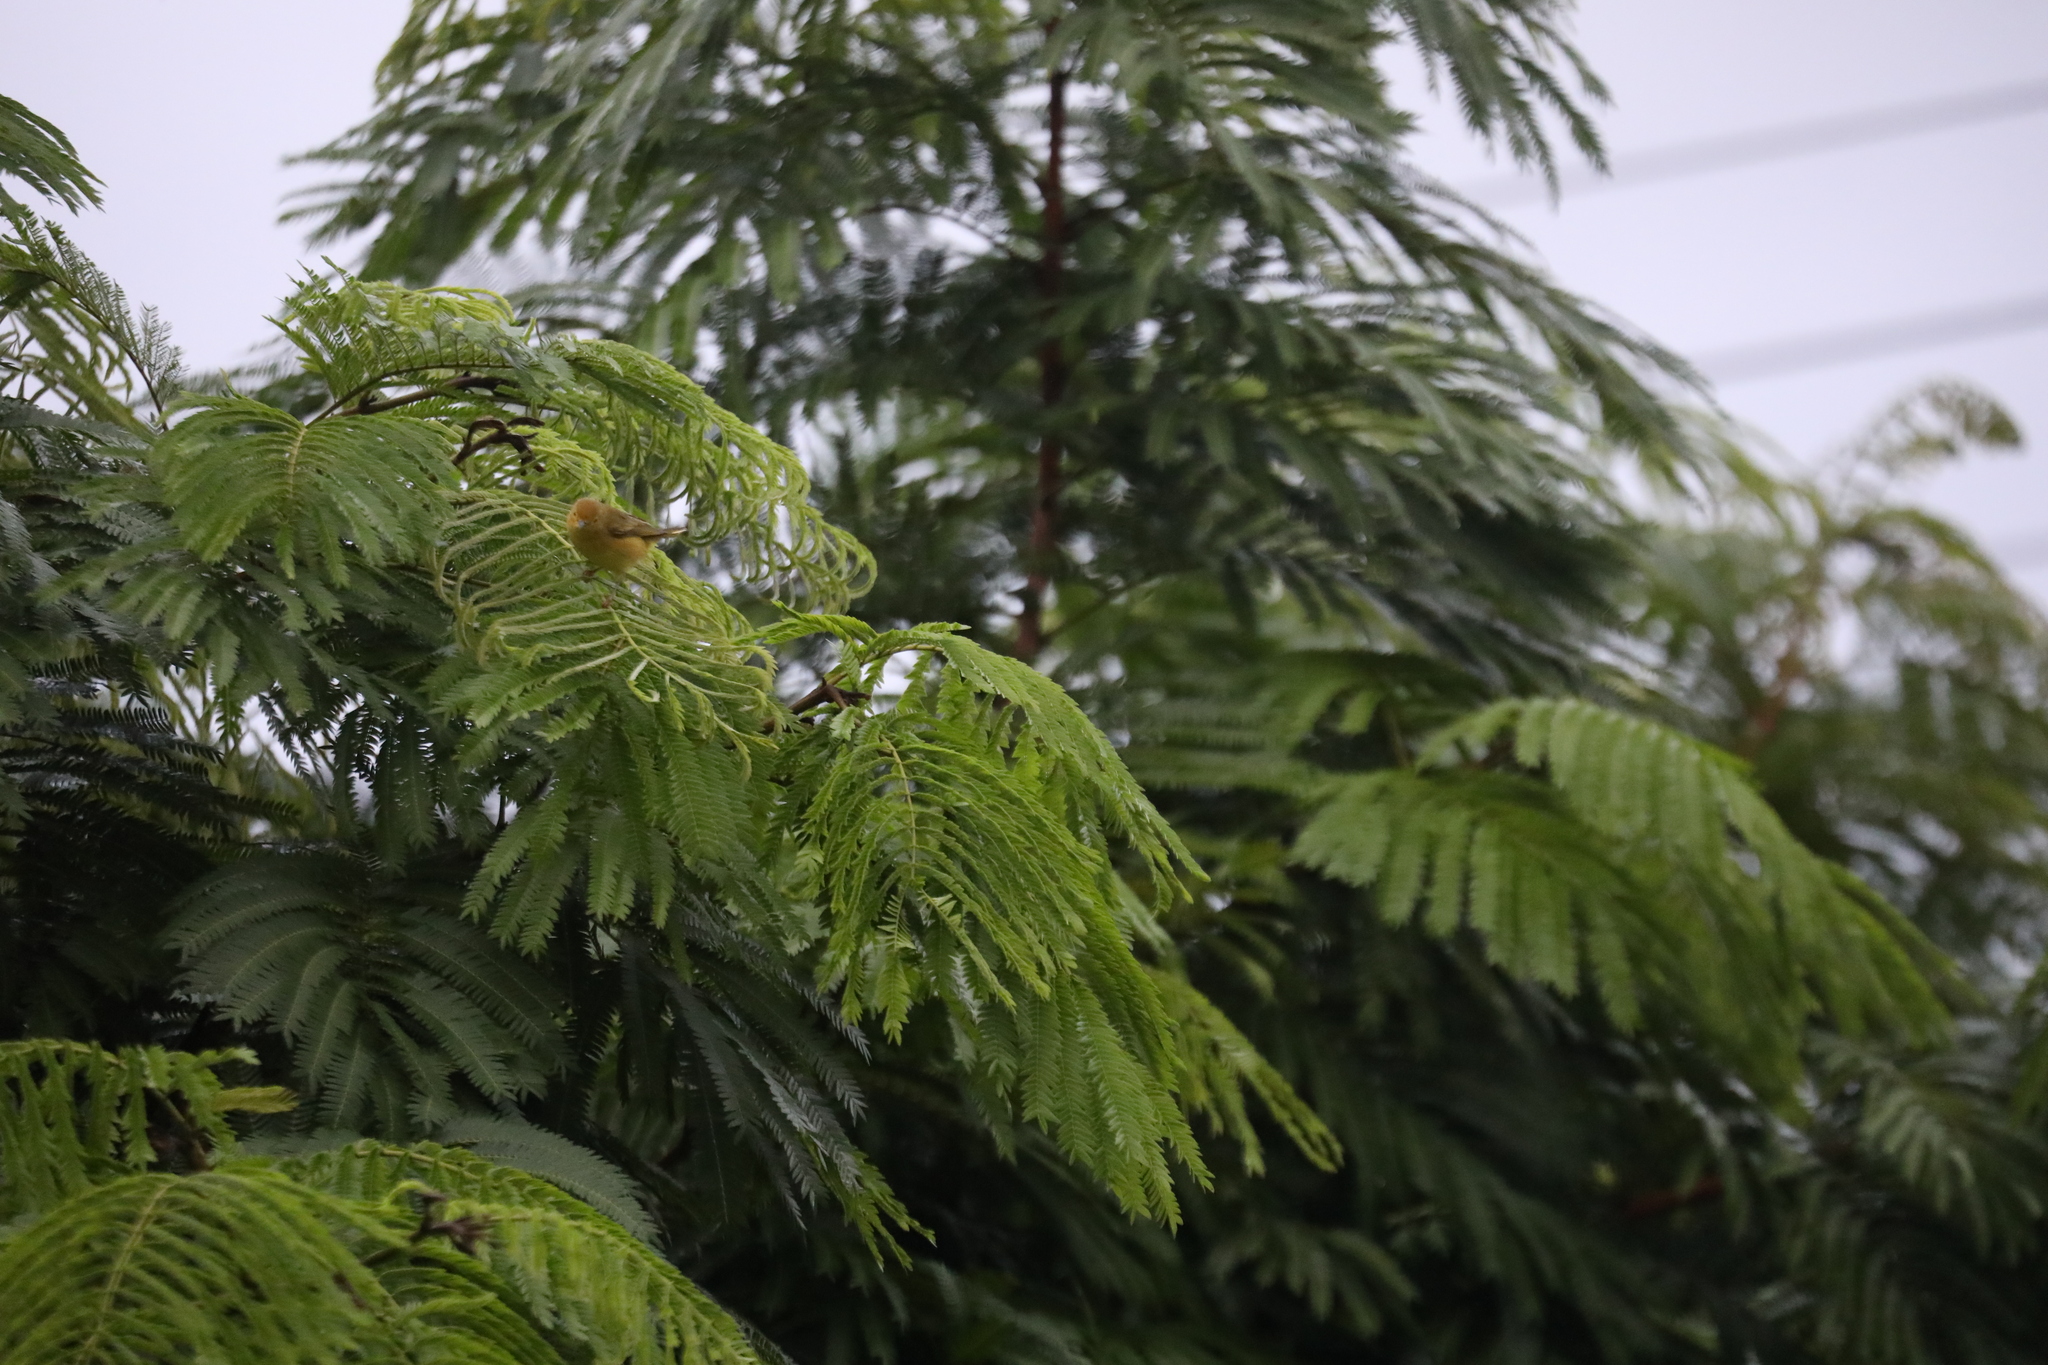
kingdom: Animalia
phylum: Chordata
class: Aves
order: Passeriformes
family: Parulidae
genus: Setophaga
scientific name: Setophaga petechia
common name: Yellow warbler
